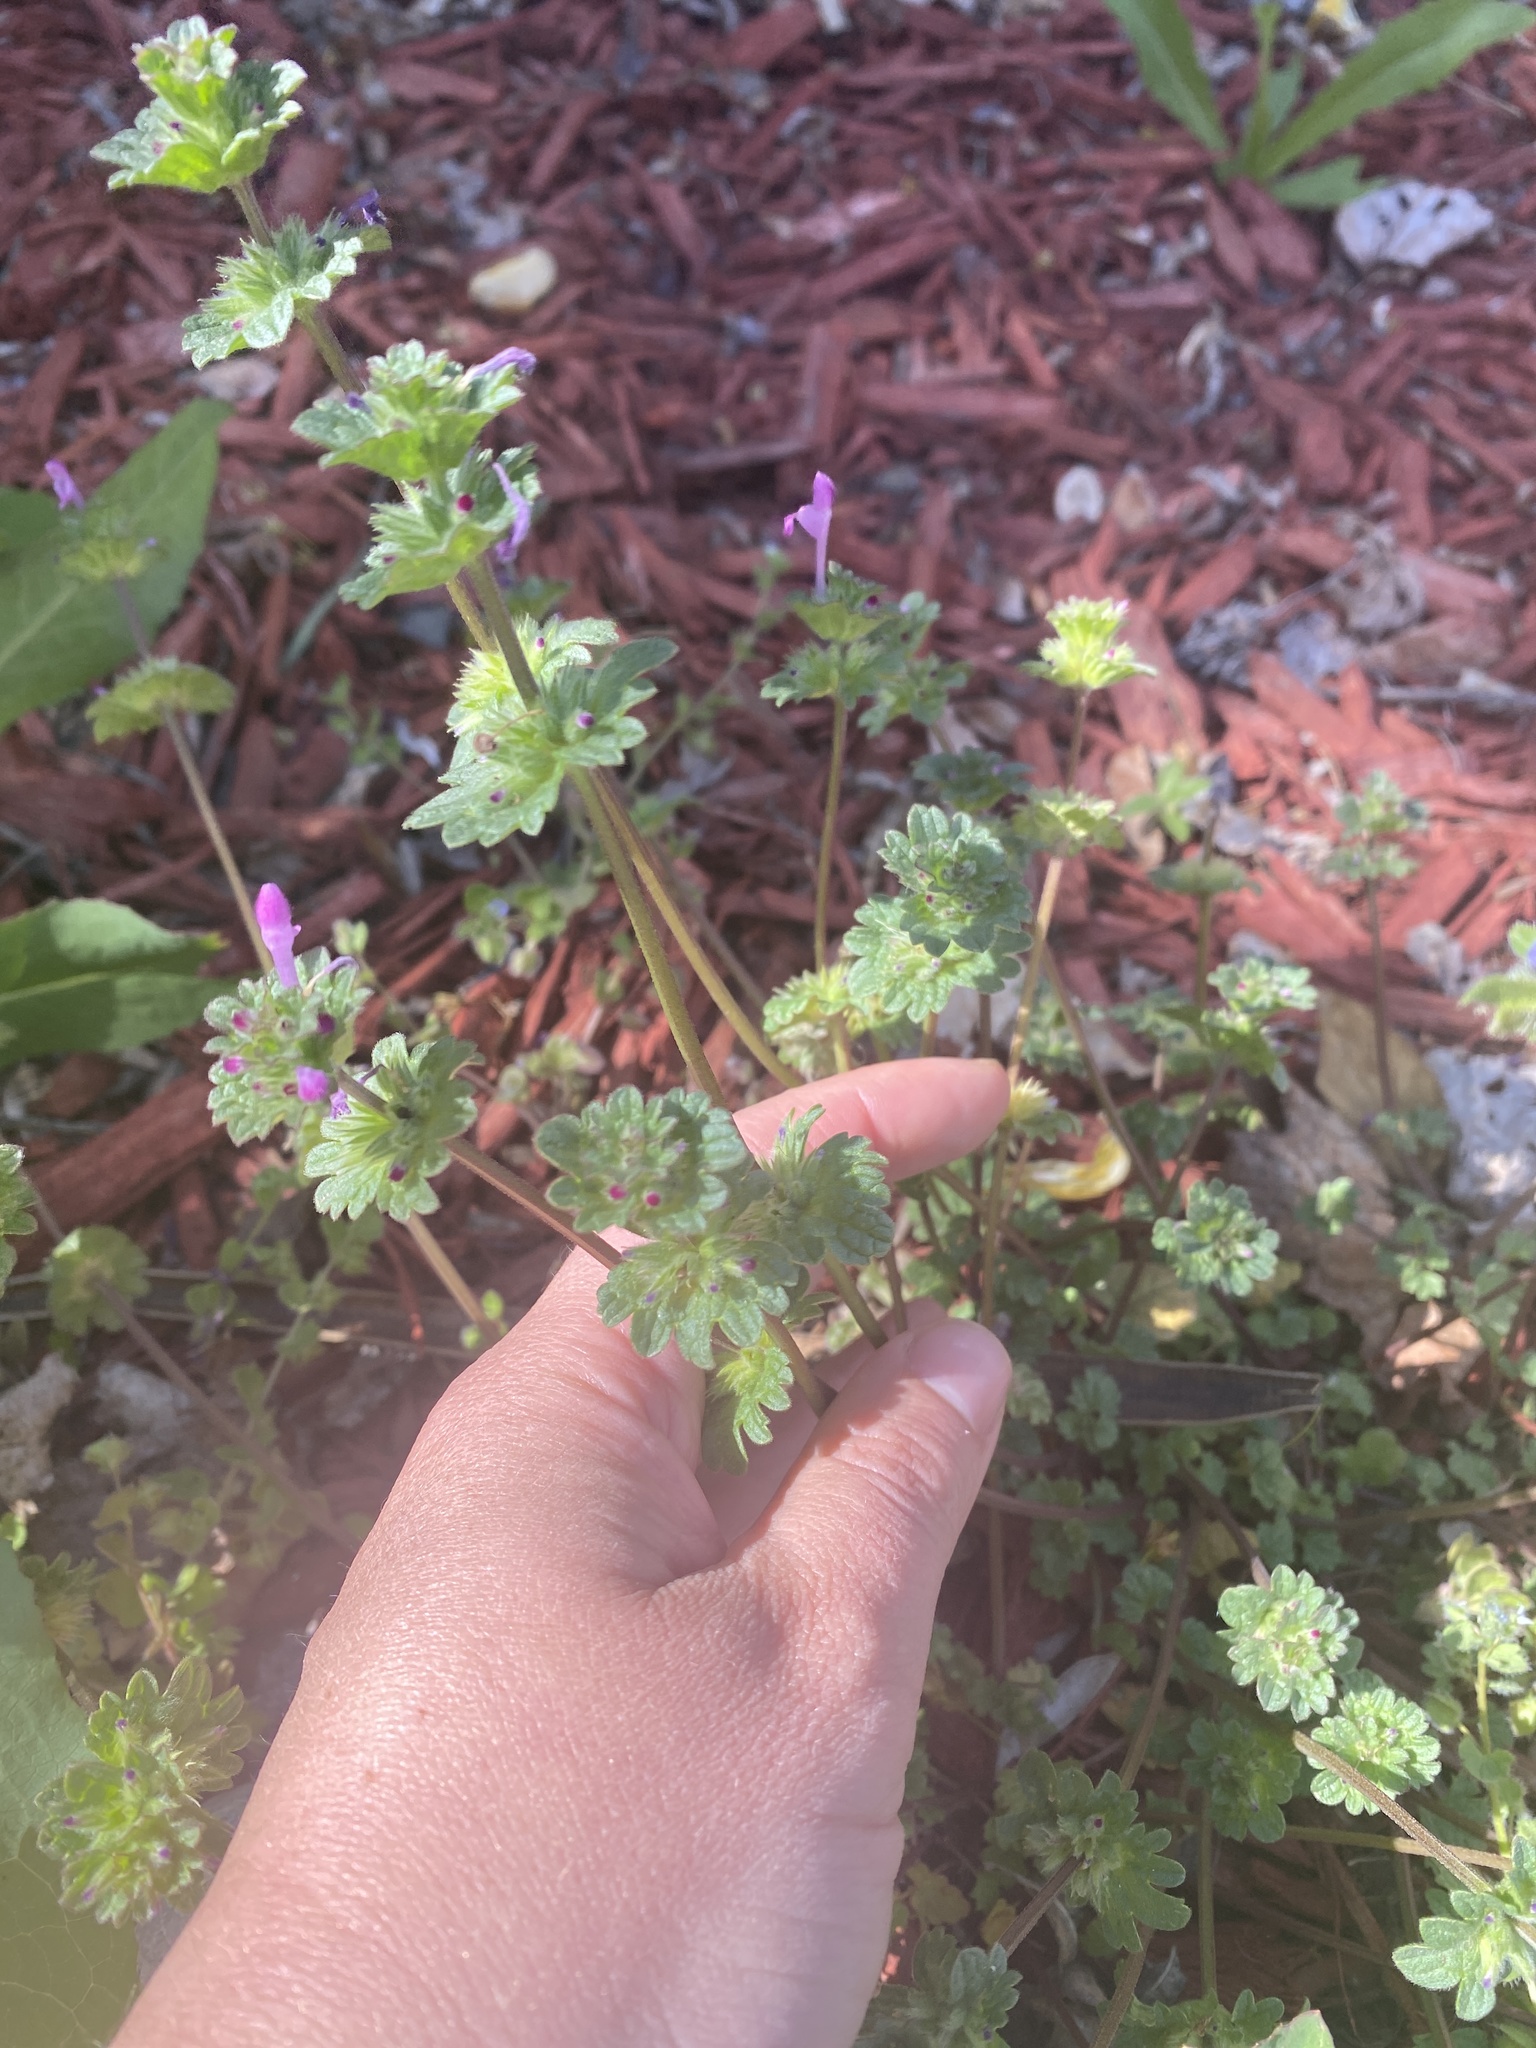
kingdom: Plantae
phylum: Tracheophyta
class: Magnoliopsida
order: Lamiales
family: Lamiaceae
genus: Lamium
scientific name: Lamium amplexicaule
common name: Henbit dead-nettle
